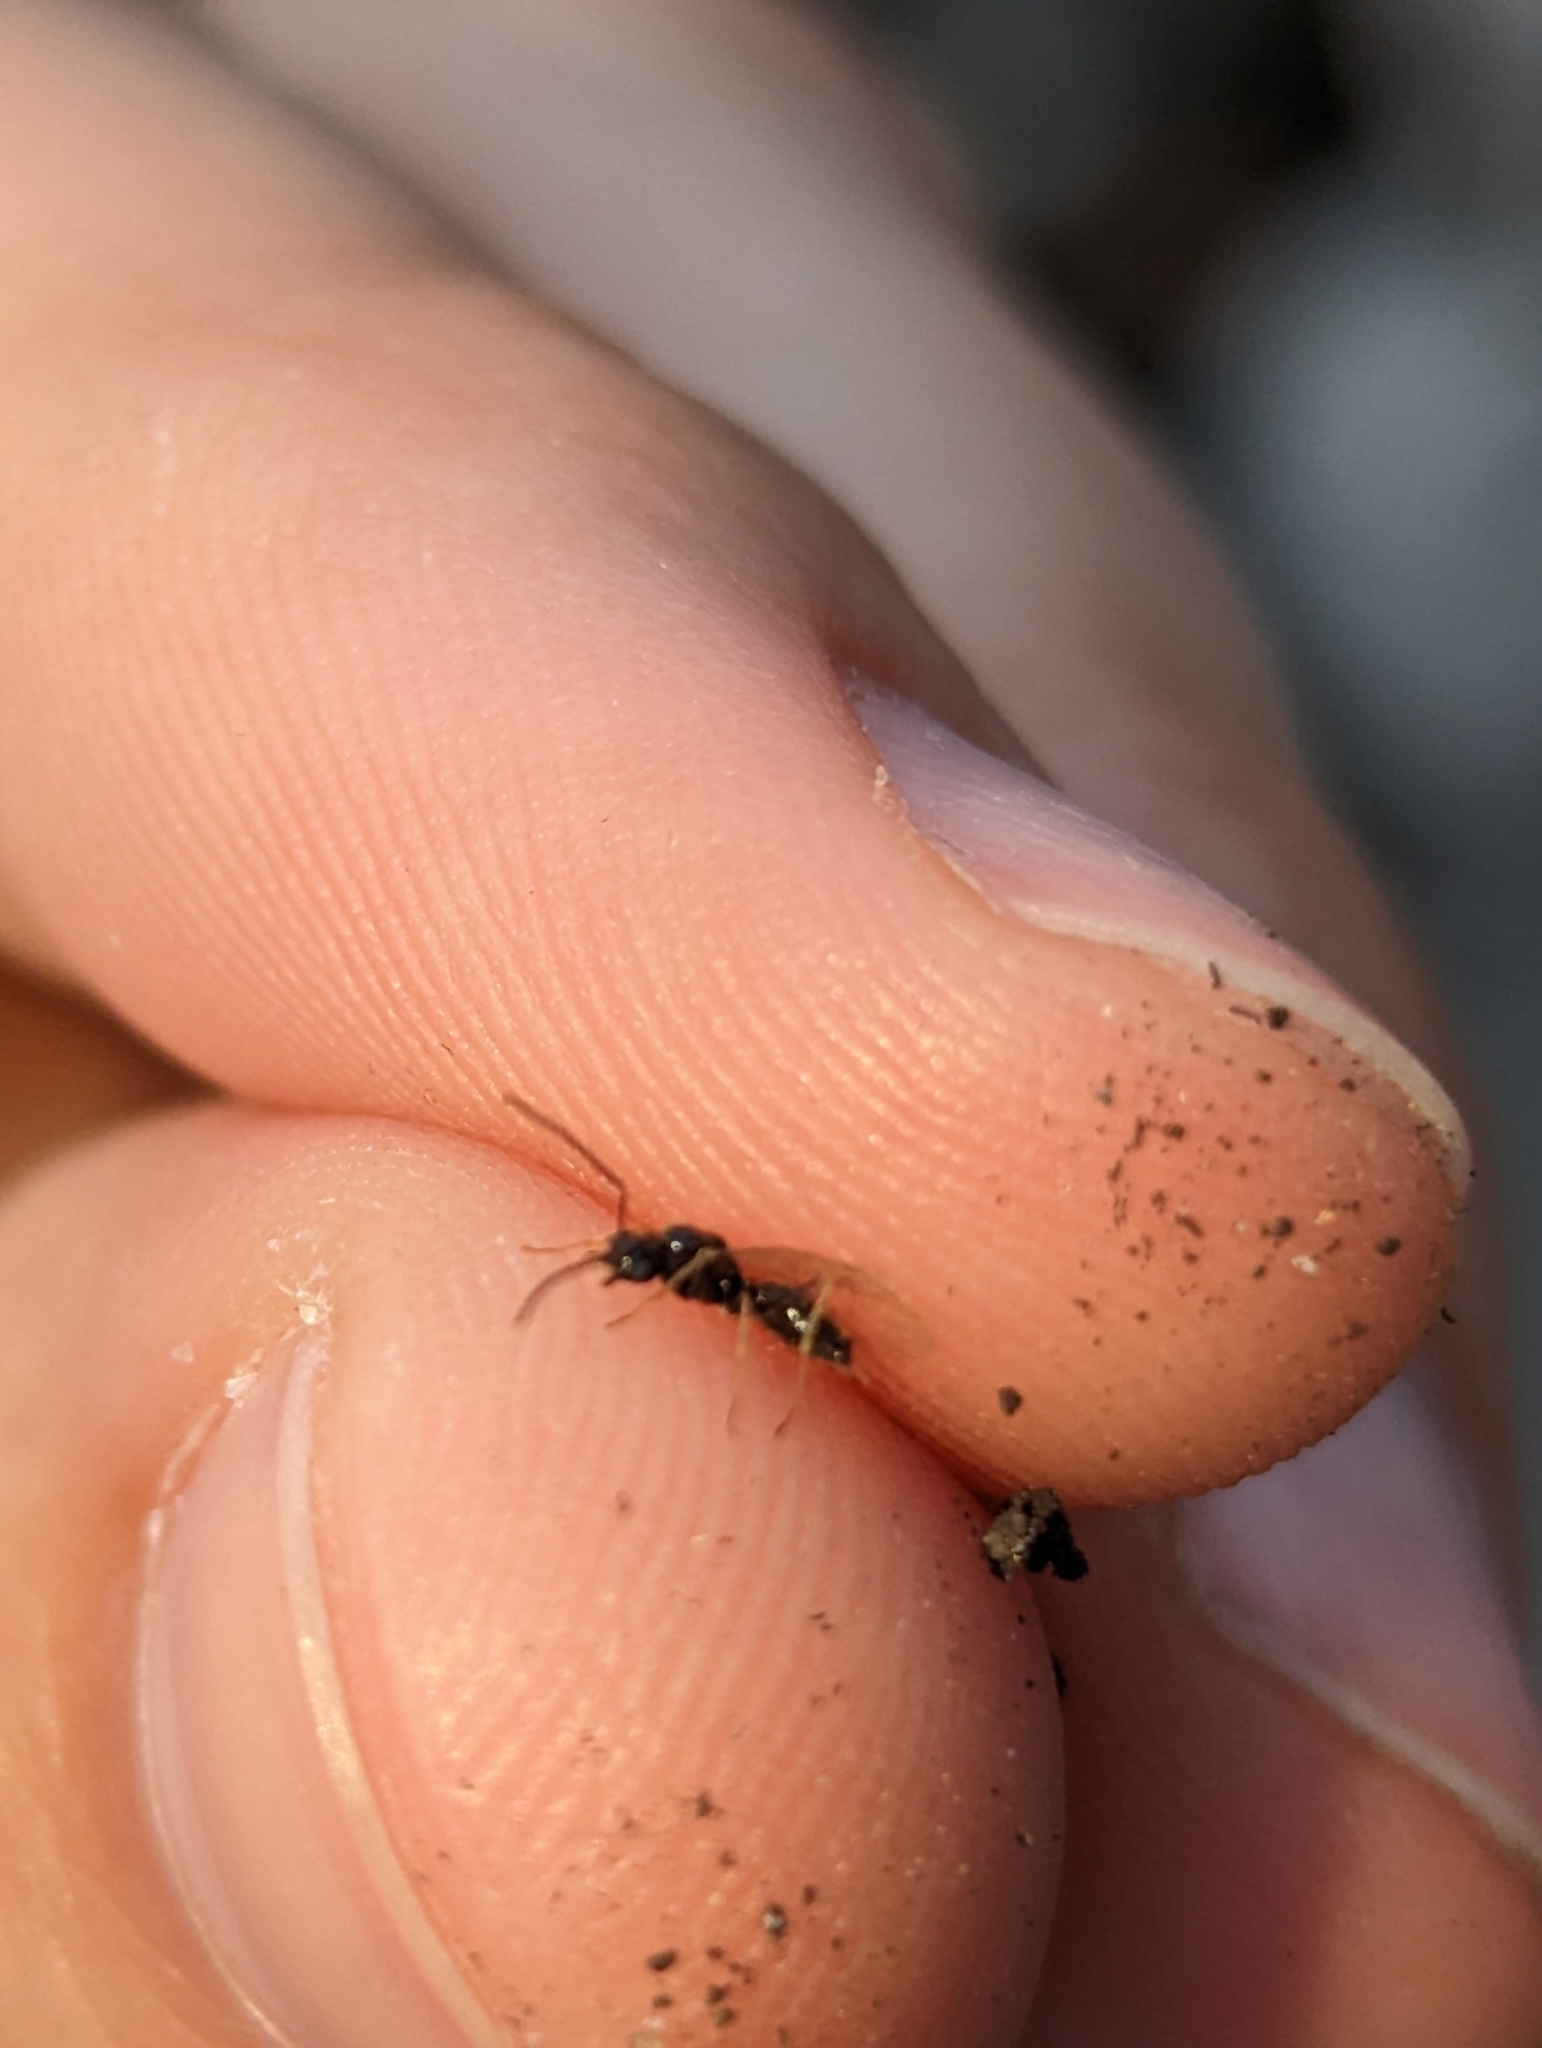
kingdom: Animalia
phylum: Arthropoda
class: Insecta
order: Hymenoptera
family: Formicidae
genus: Prenolepis
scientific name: Prenolepis imparis
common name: Small honey ant
